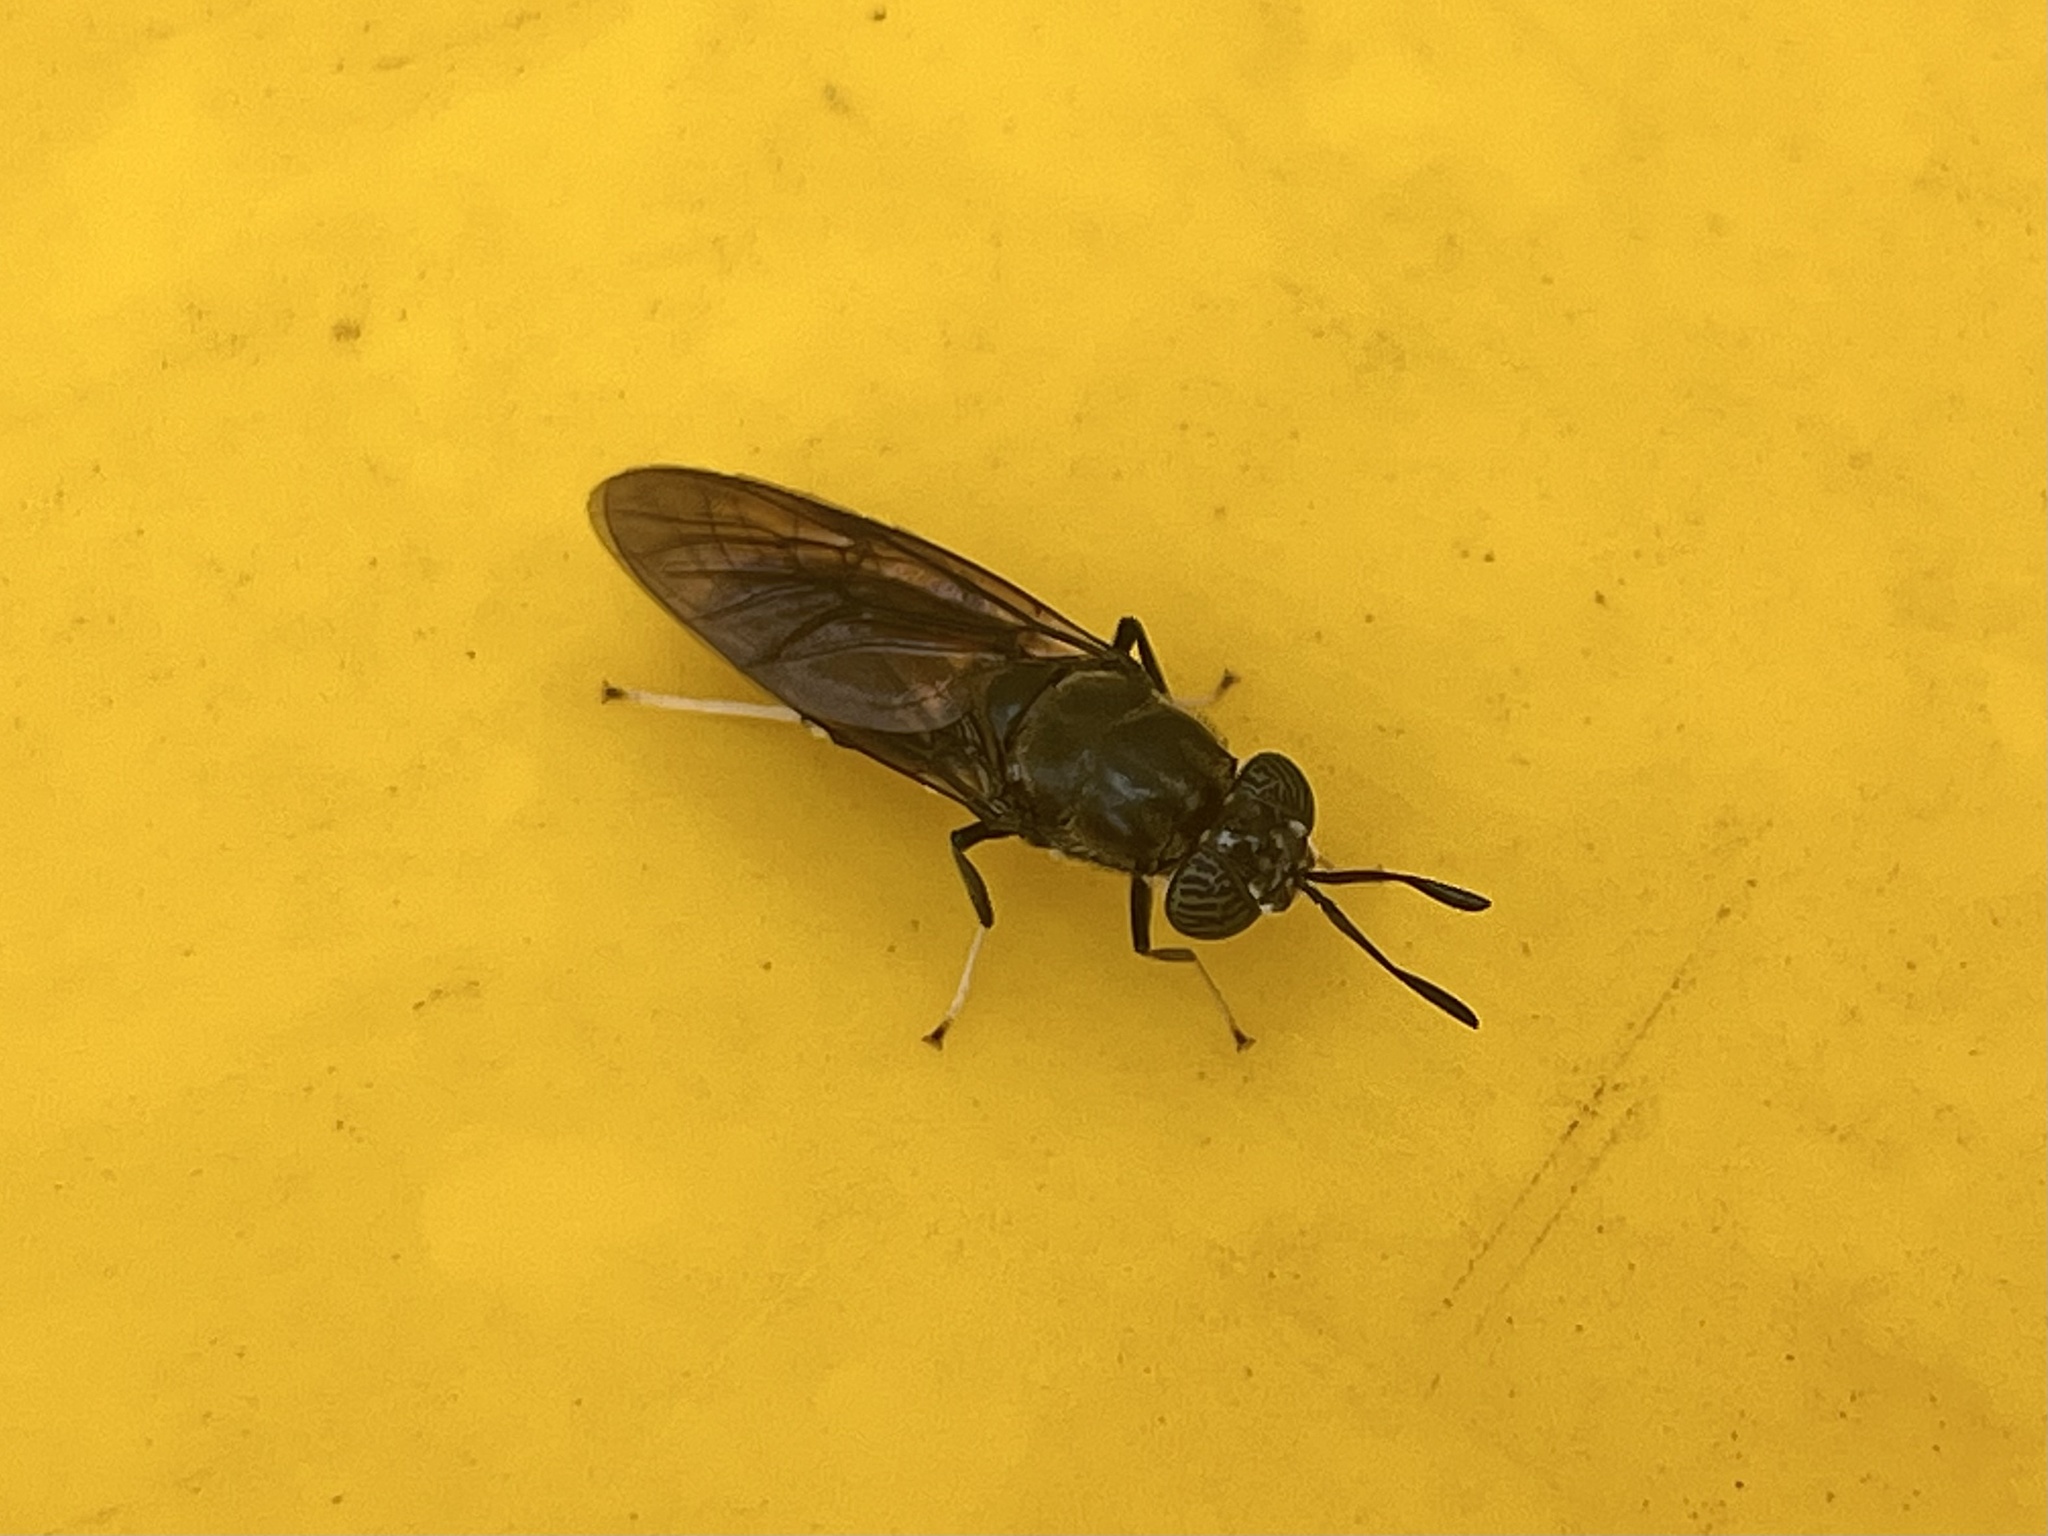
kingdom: Animalia
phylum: Arthropoda
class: Insecta
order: Diptera
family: Stratiomyidae
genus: Hermetia
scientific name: Hermetia illucens
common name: Black soldier fly
